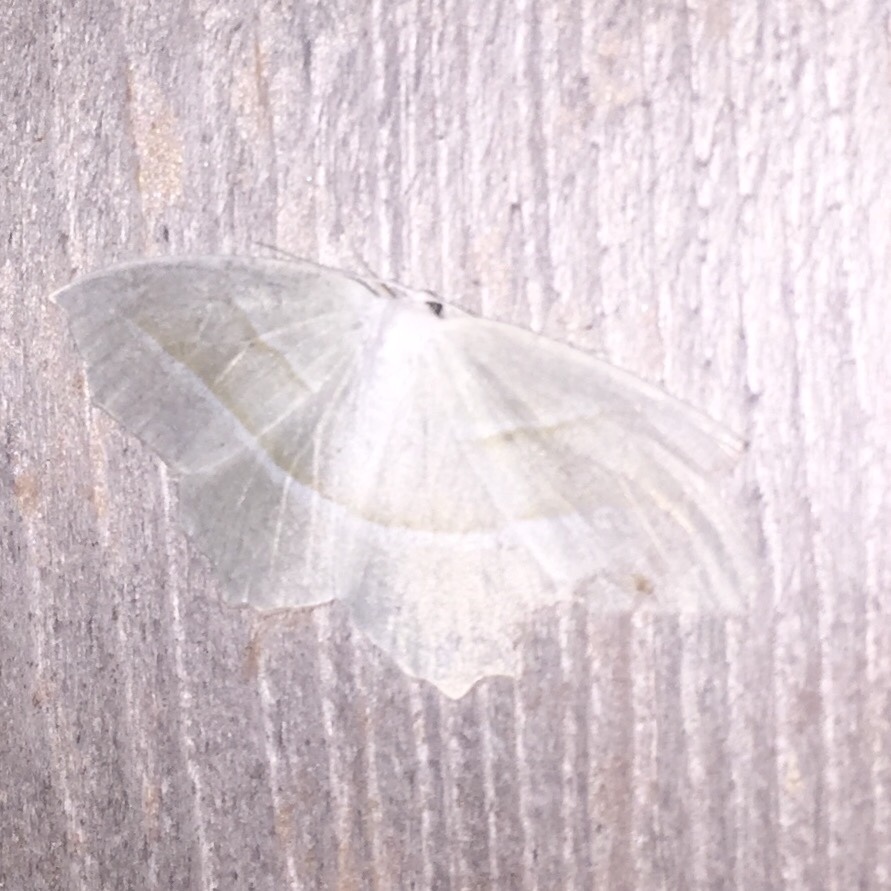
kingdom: Animalia
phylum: Arthropoda
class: Insecta
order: Lepidoptera
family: Geometridae
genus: Campaea
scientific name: Campaea perlata
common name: Fringed looper
